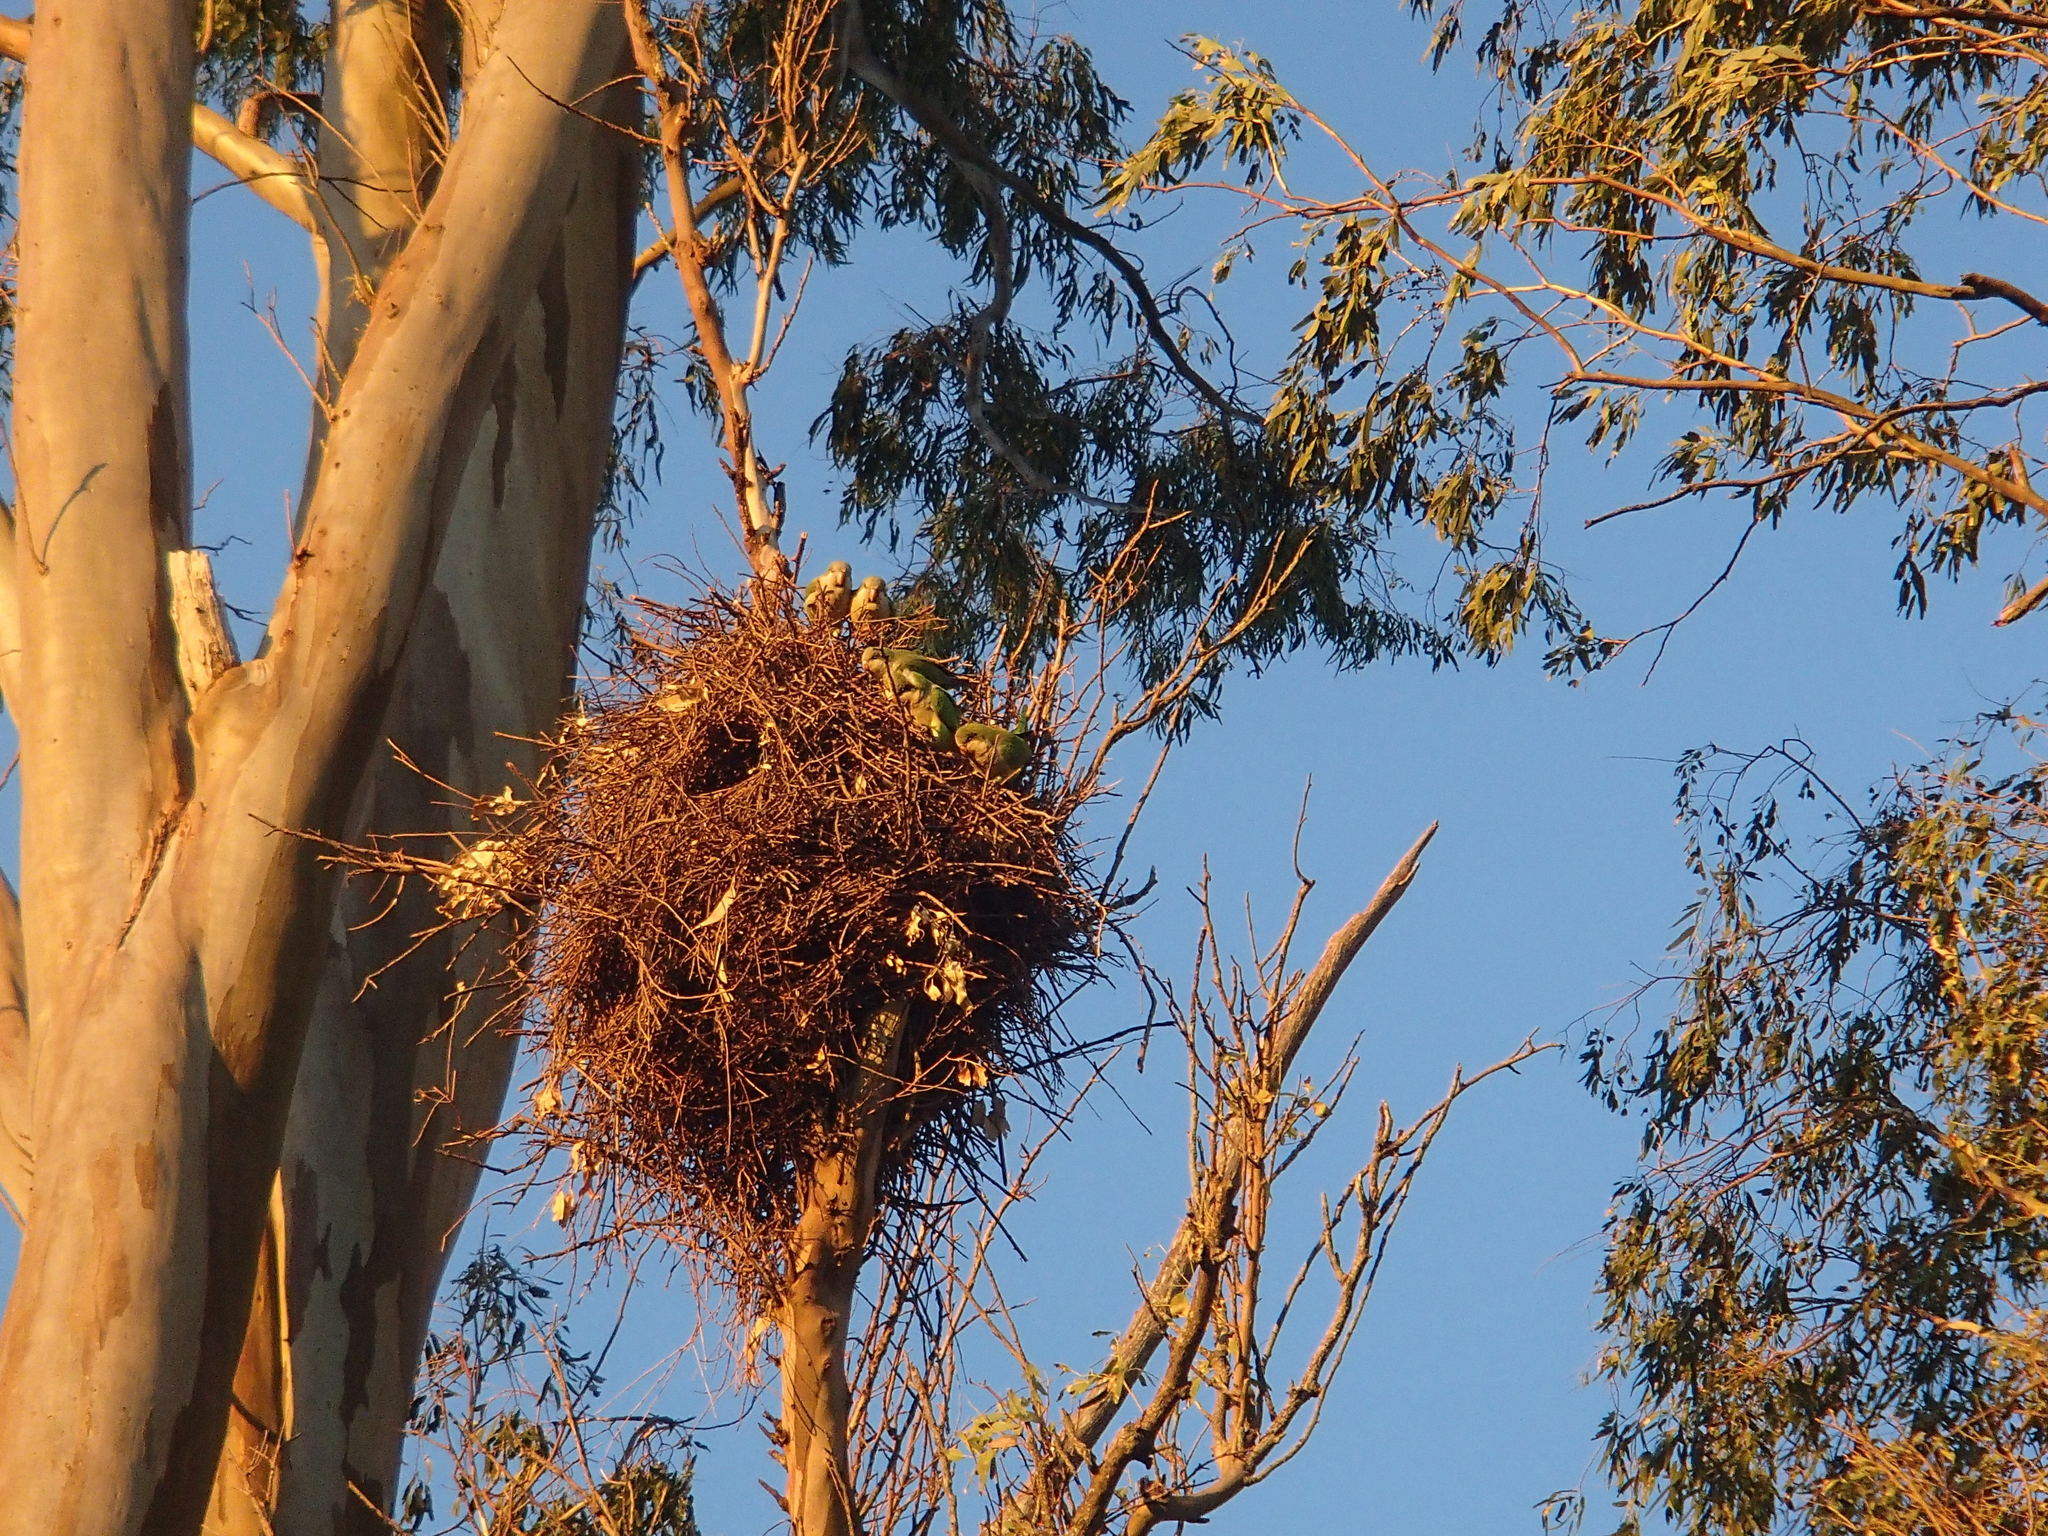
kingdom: Animalia
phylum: Chordata
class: Aves
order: Psittaciformes
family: Psittacidae
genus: Myiopsitta
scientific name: Myiopsitta monachus
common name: Monk parakeet
